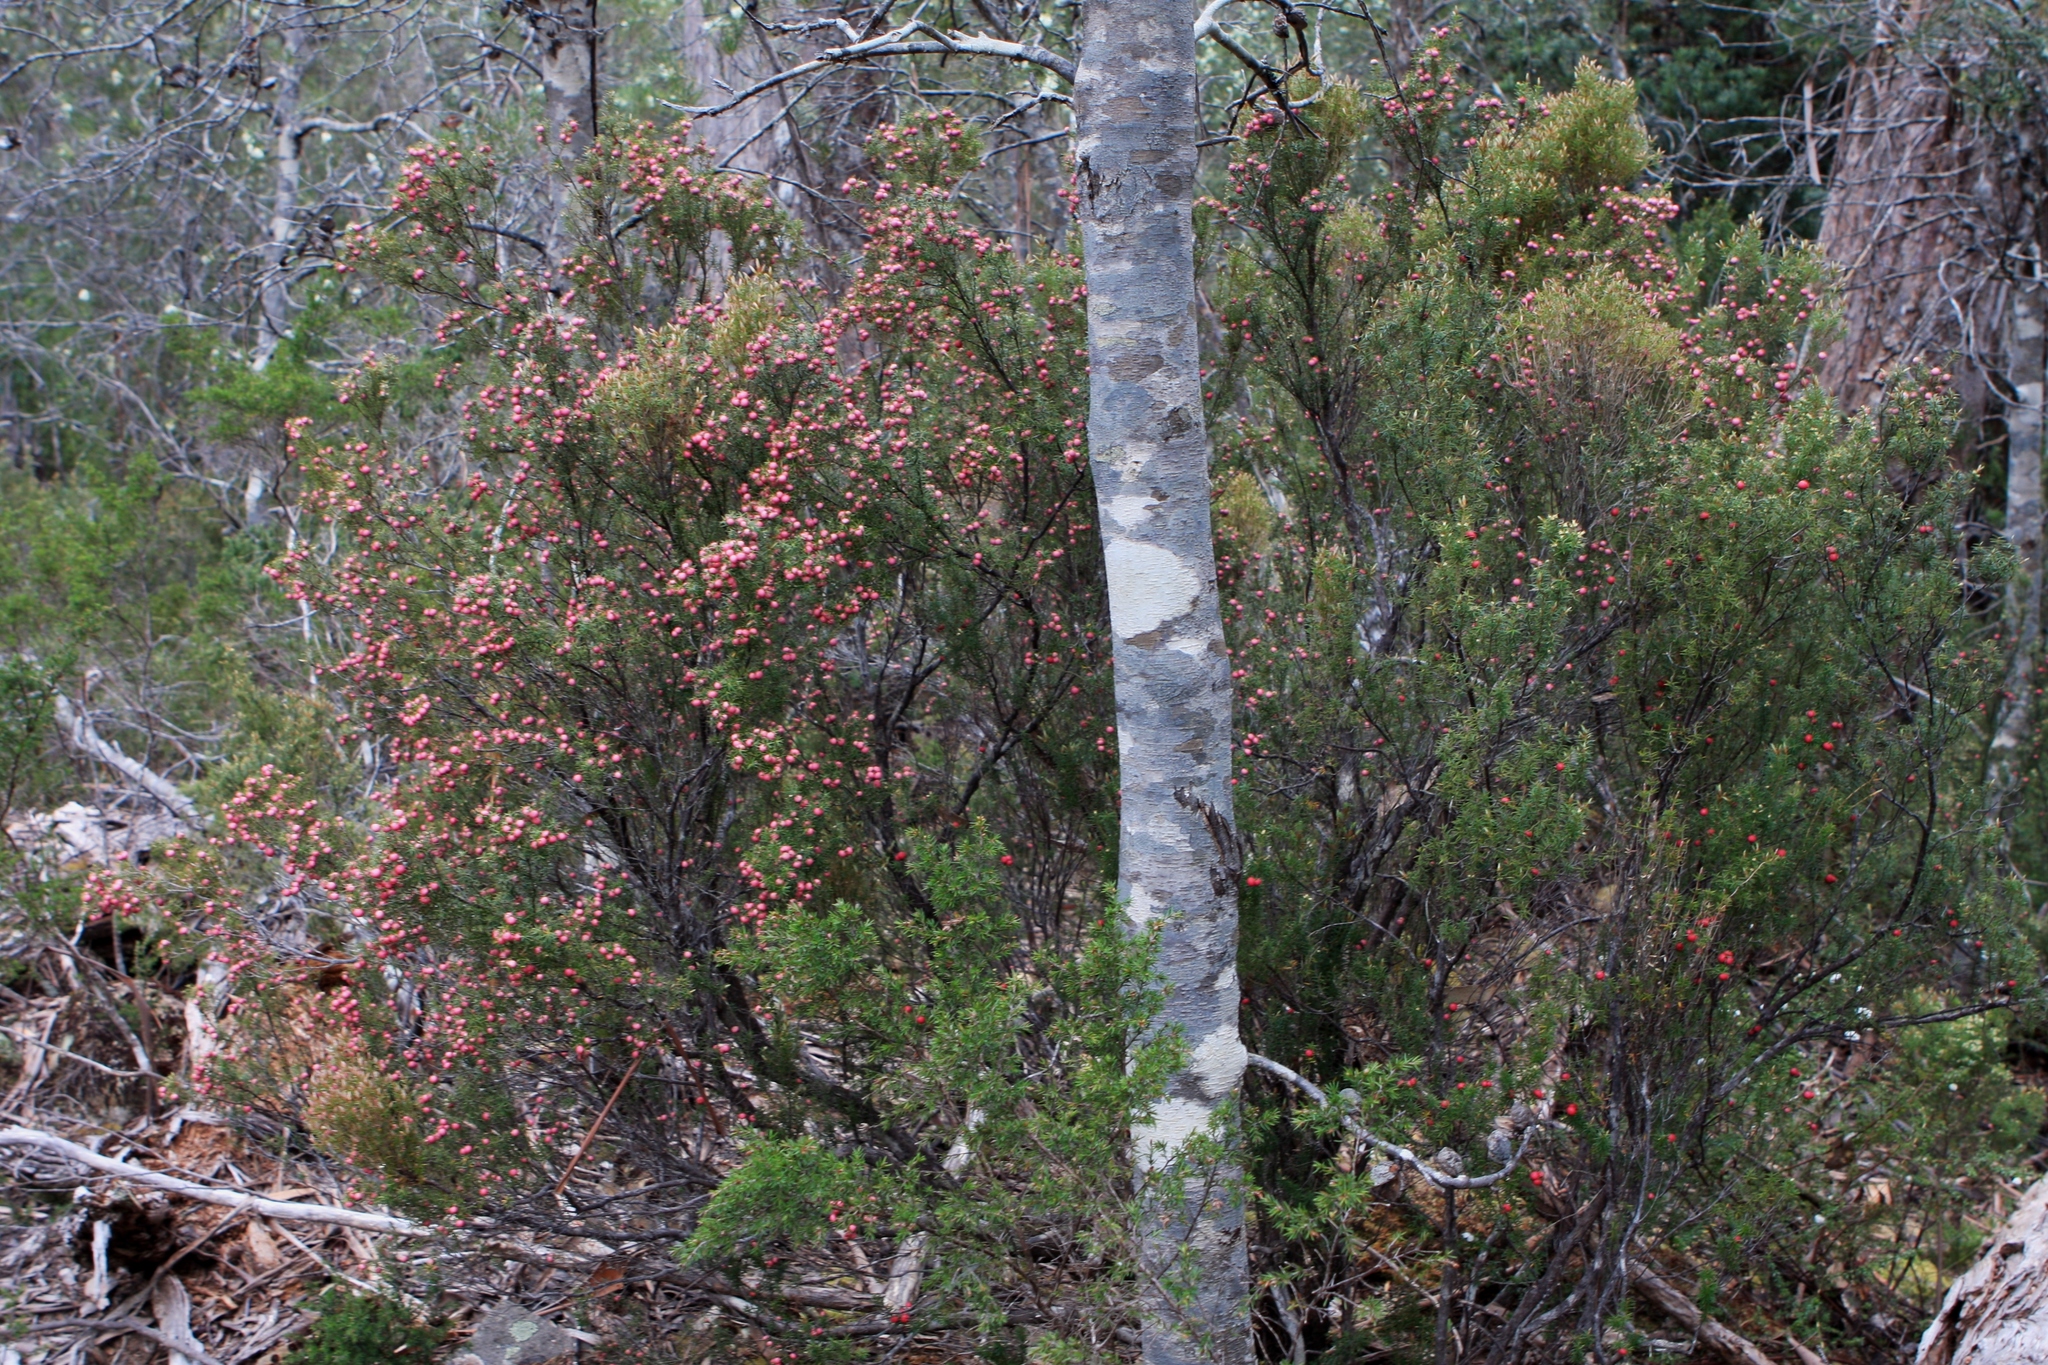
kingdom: Plantae
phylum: Tracheophyta
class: Magnoliopsida
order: Ericales
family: Ericaceae
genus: Leptecophylla
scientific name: Leptecophylla
